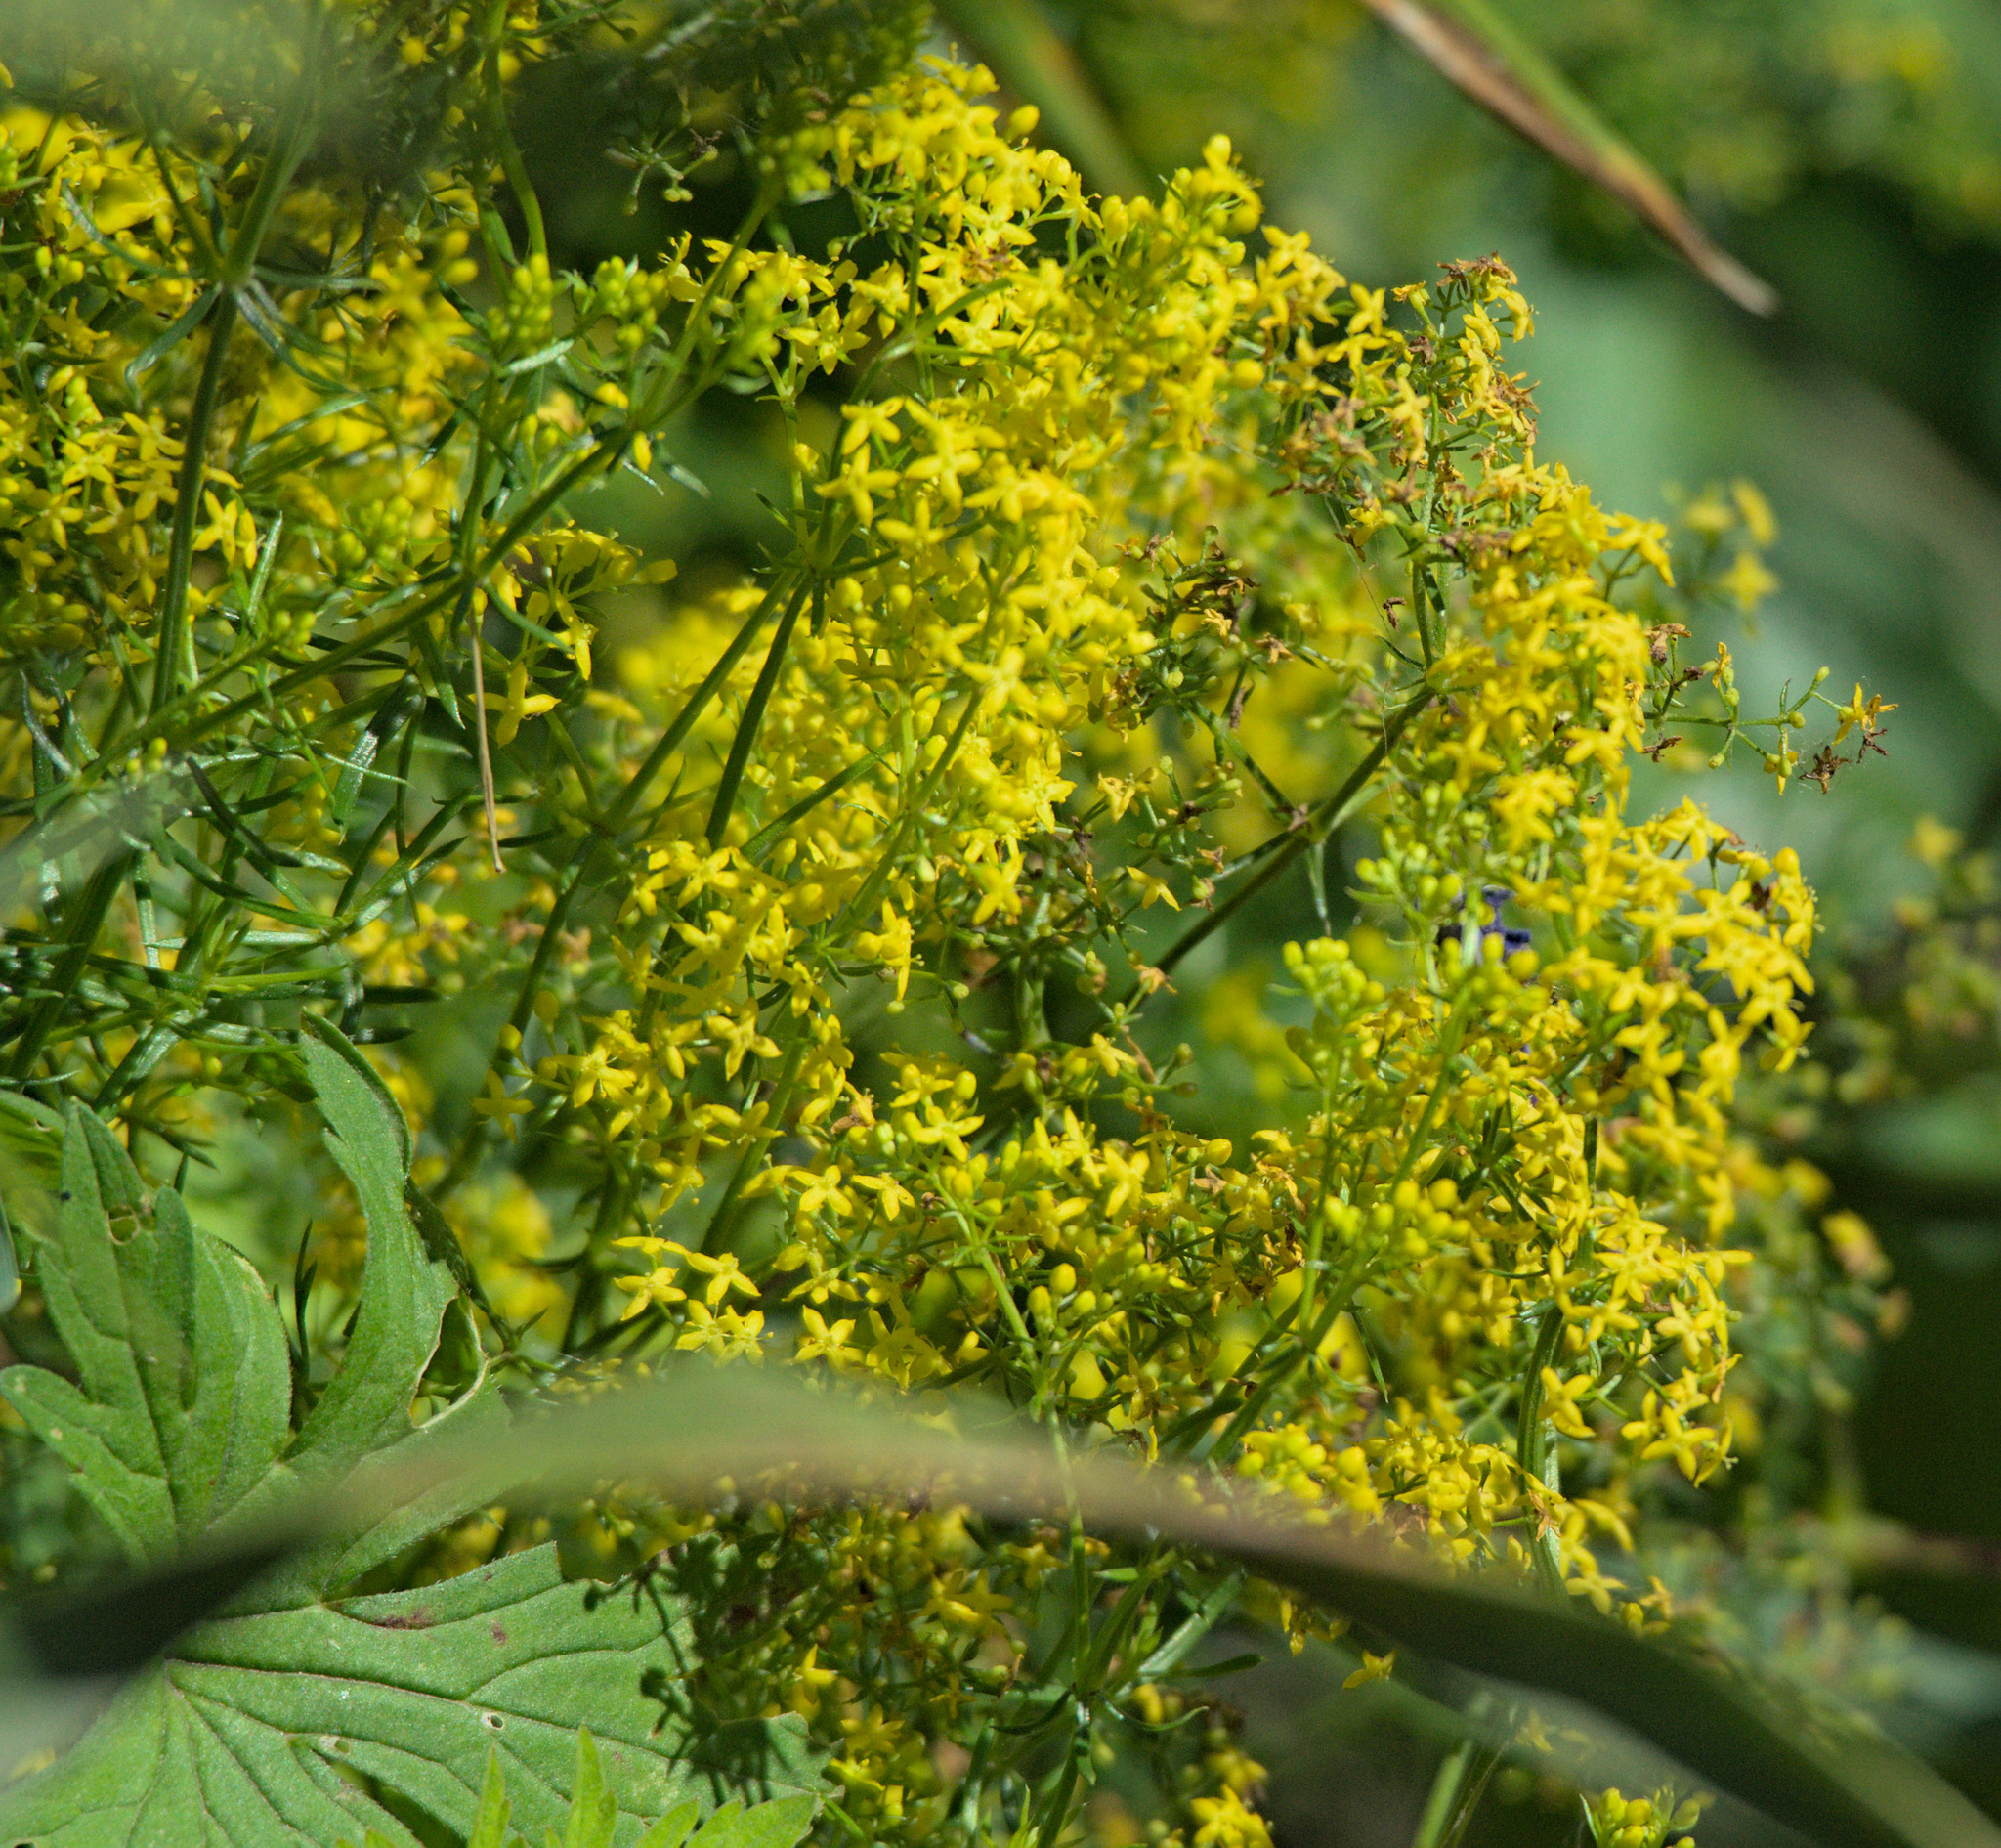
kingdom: Plantae
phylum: Tracheophyta
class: Magnoliopsida
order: Gentianales
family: Rubiaceae
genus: Galium
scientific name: Galium verum
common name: Lady's bedstraw
